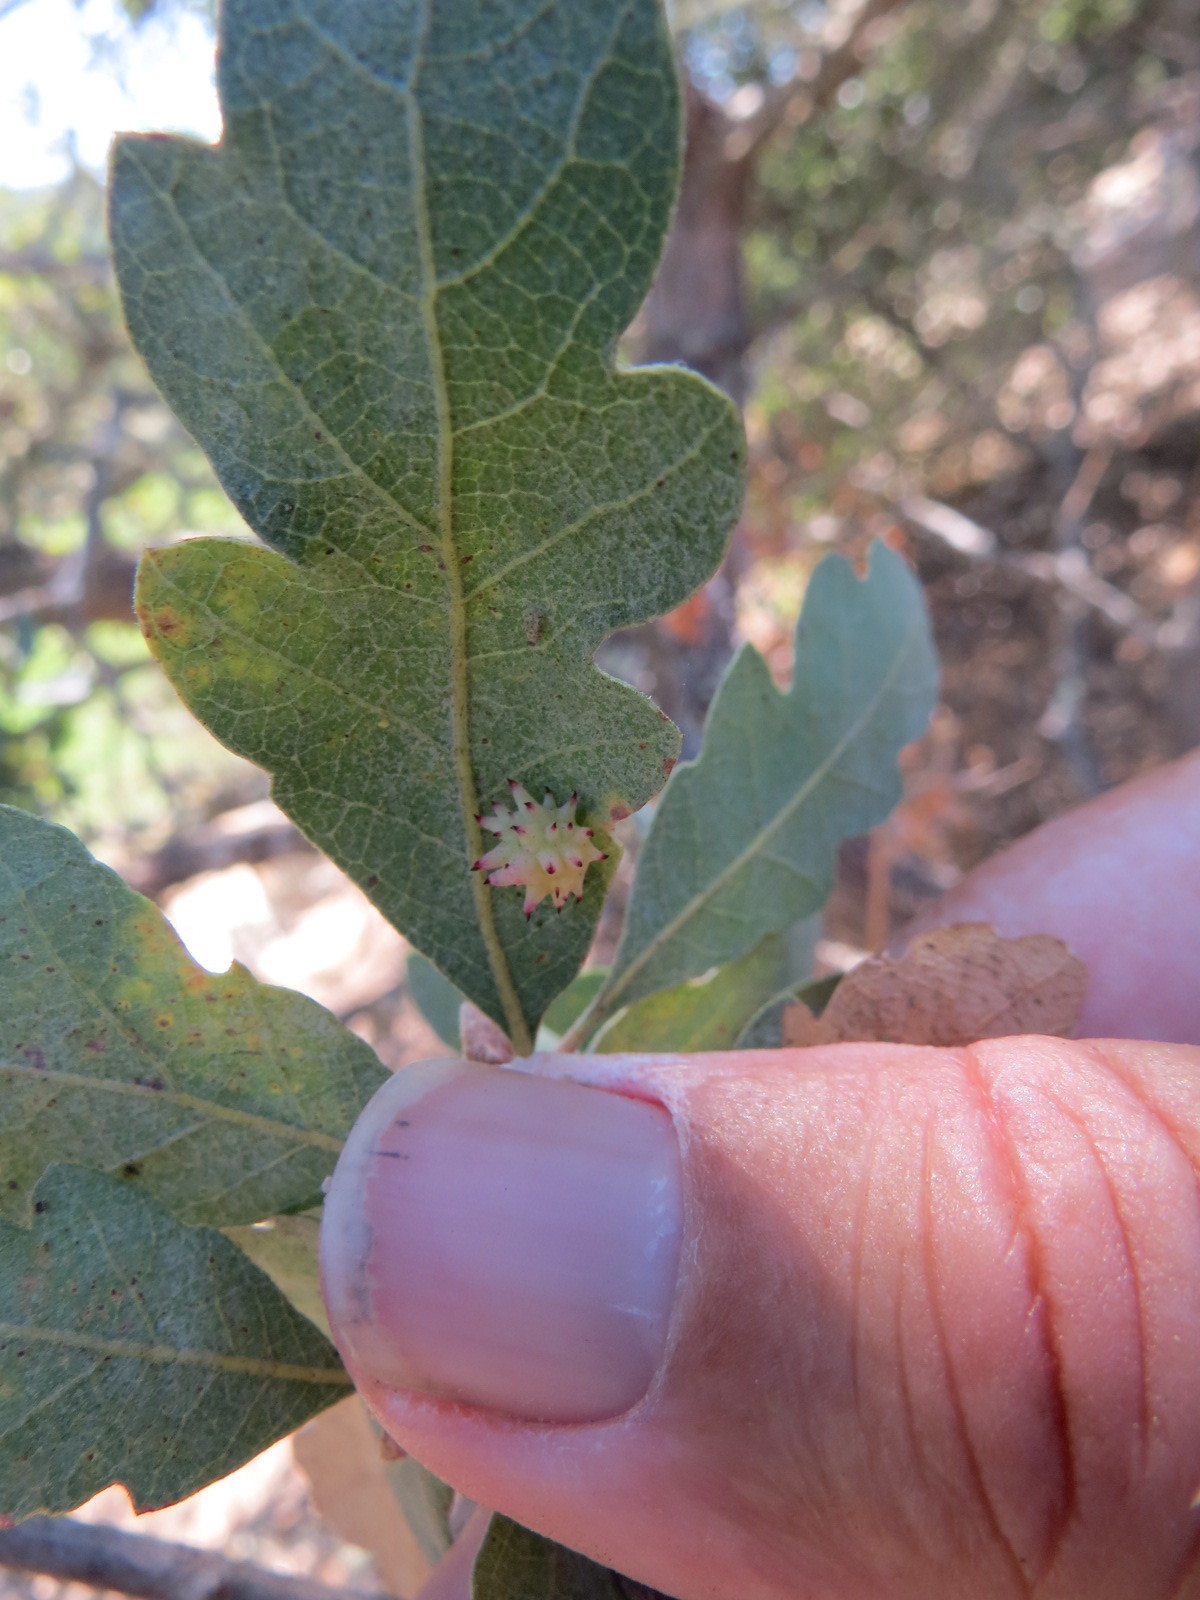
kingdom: Animalia
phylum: Arthropoda
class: Insecta
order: Hymenoptera
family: Cynipidae
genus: Cynips
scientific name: Cynips
